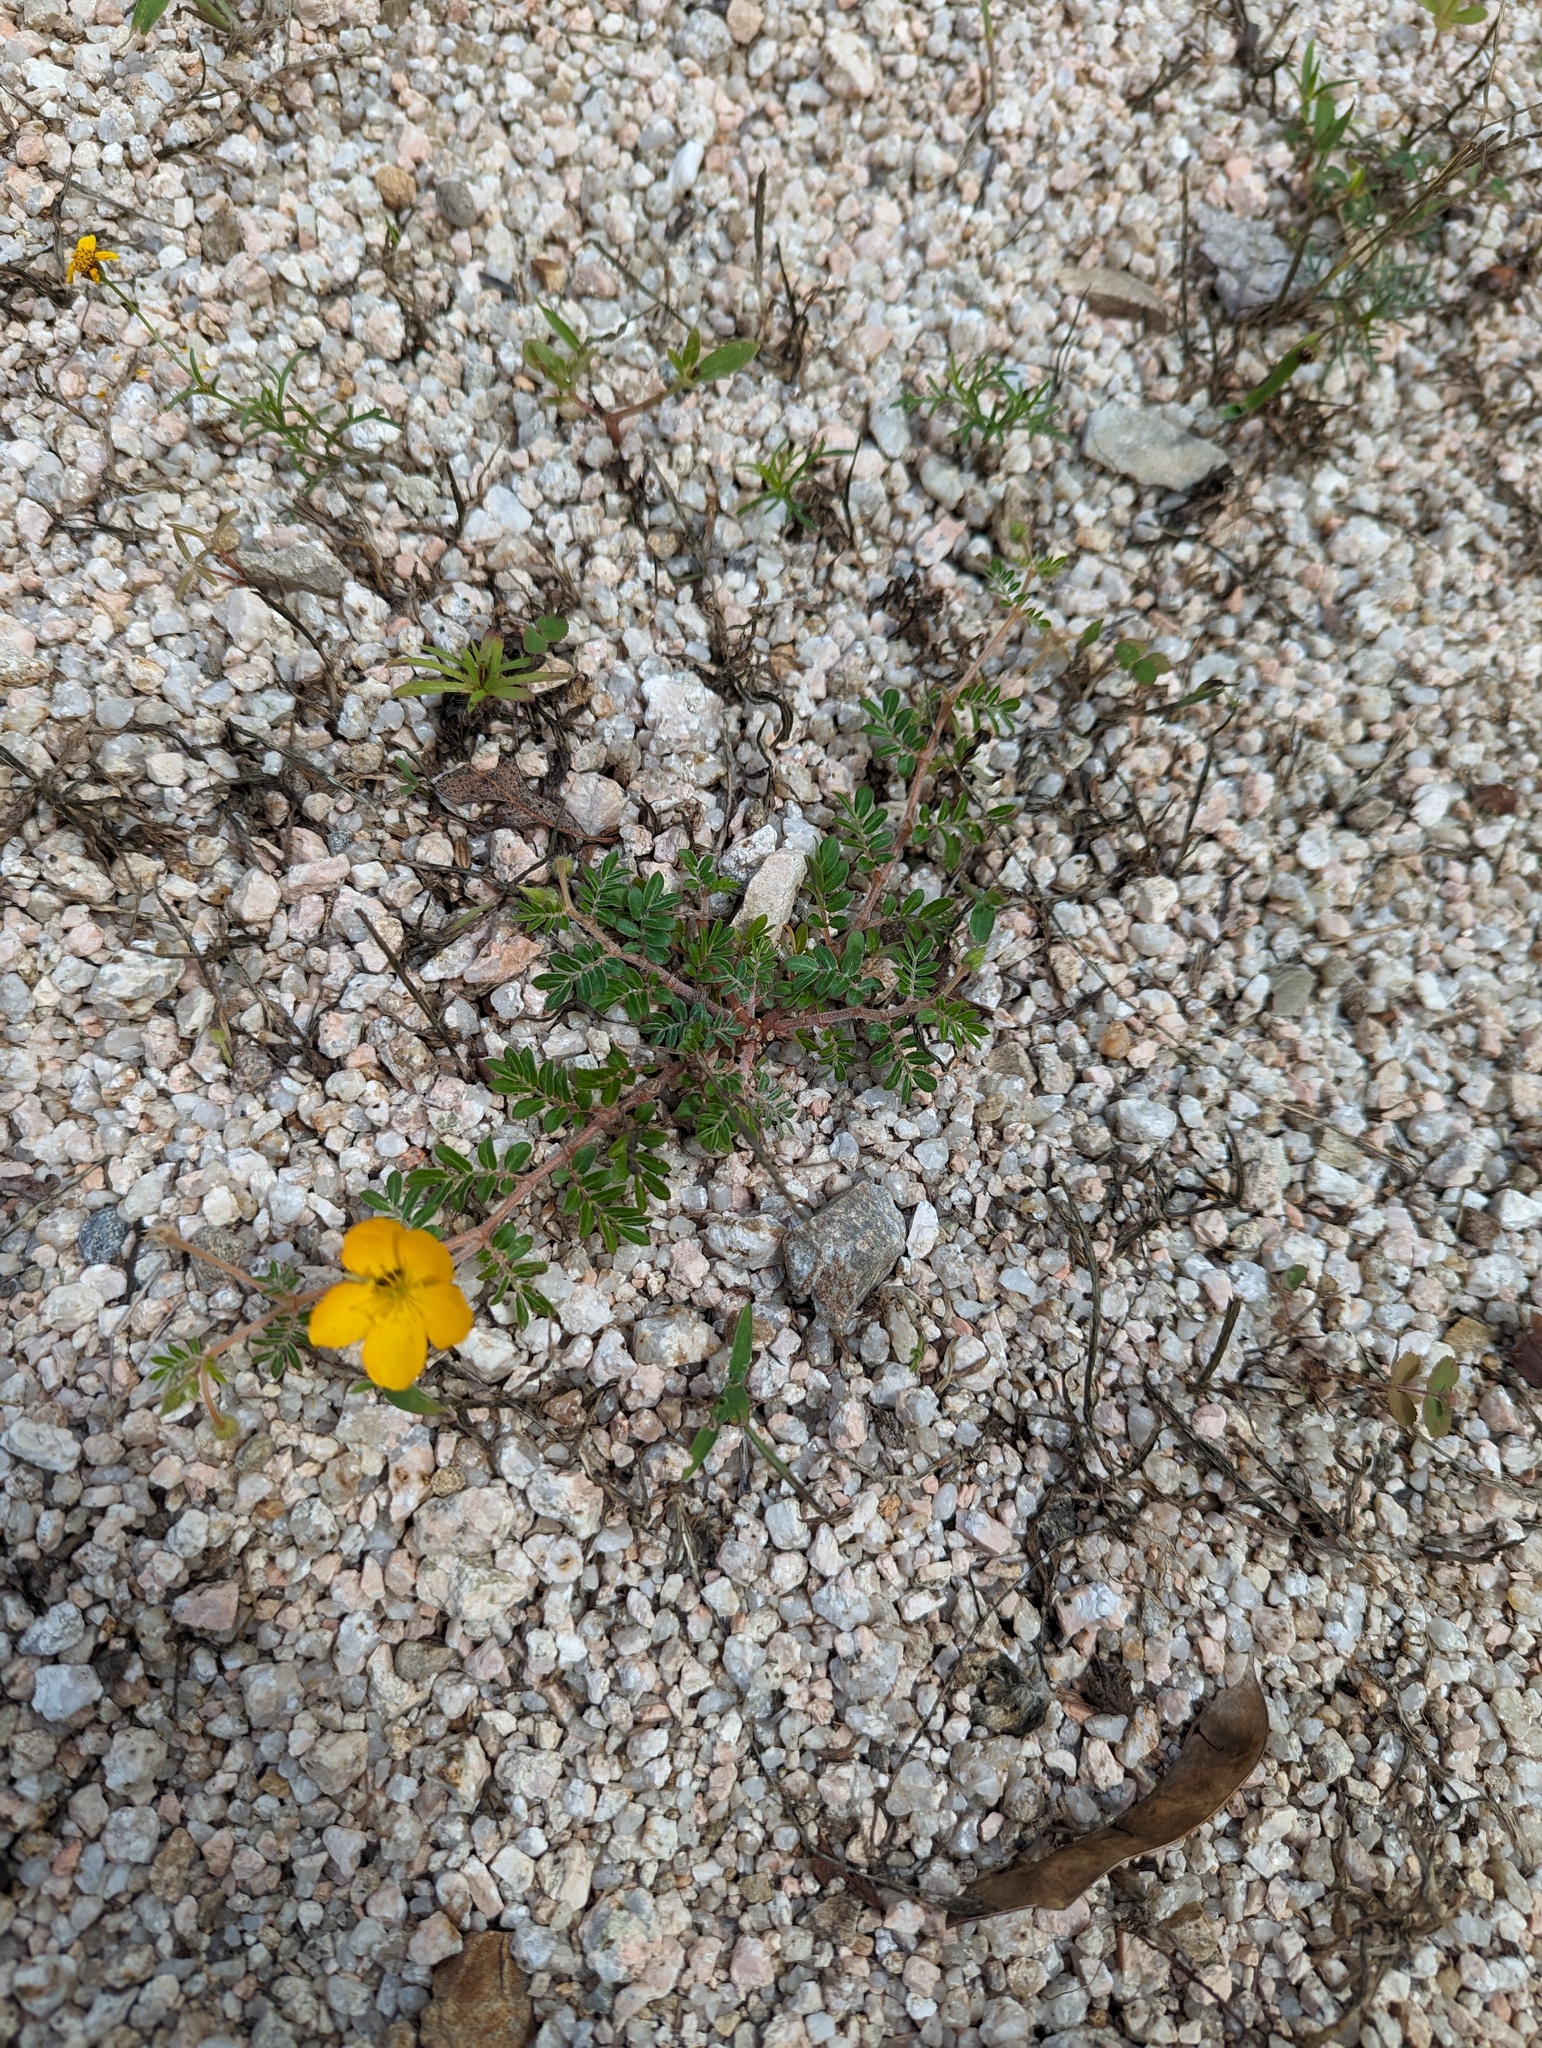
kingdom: Plantae
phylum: Tracheophyta
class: Magnoliopsida
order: Zygophyllales
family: Zygophyllaceae
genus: Kallstroemia
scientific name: Kallstroemia peninsularis
